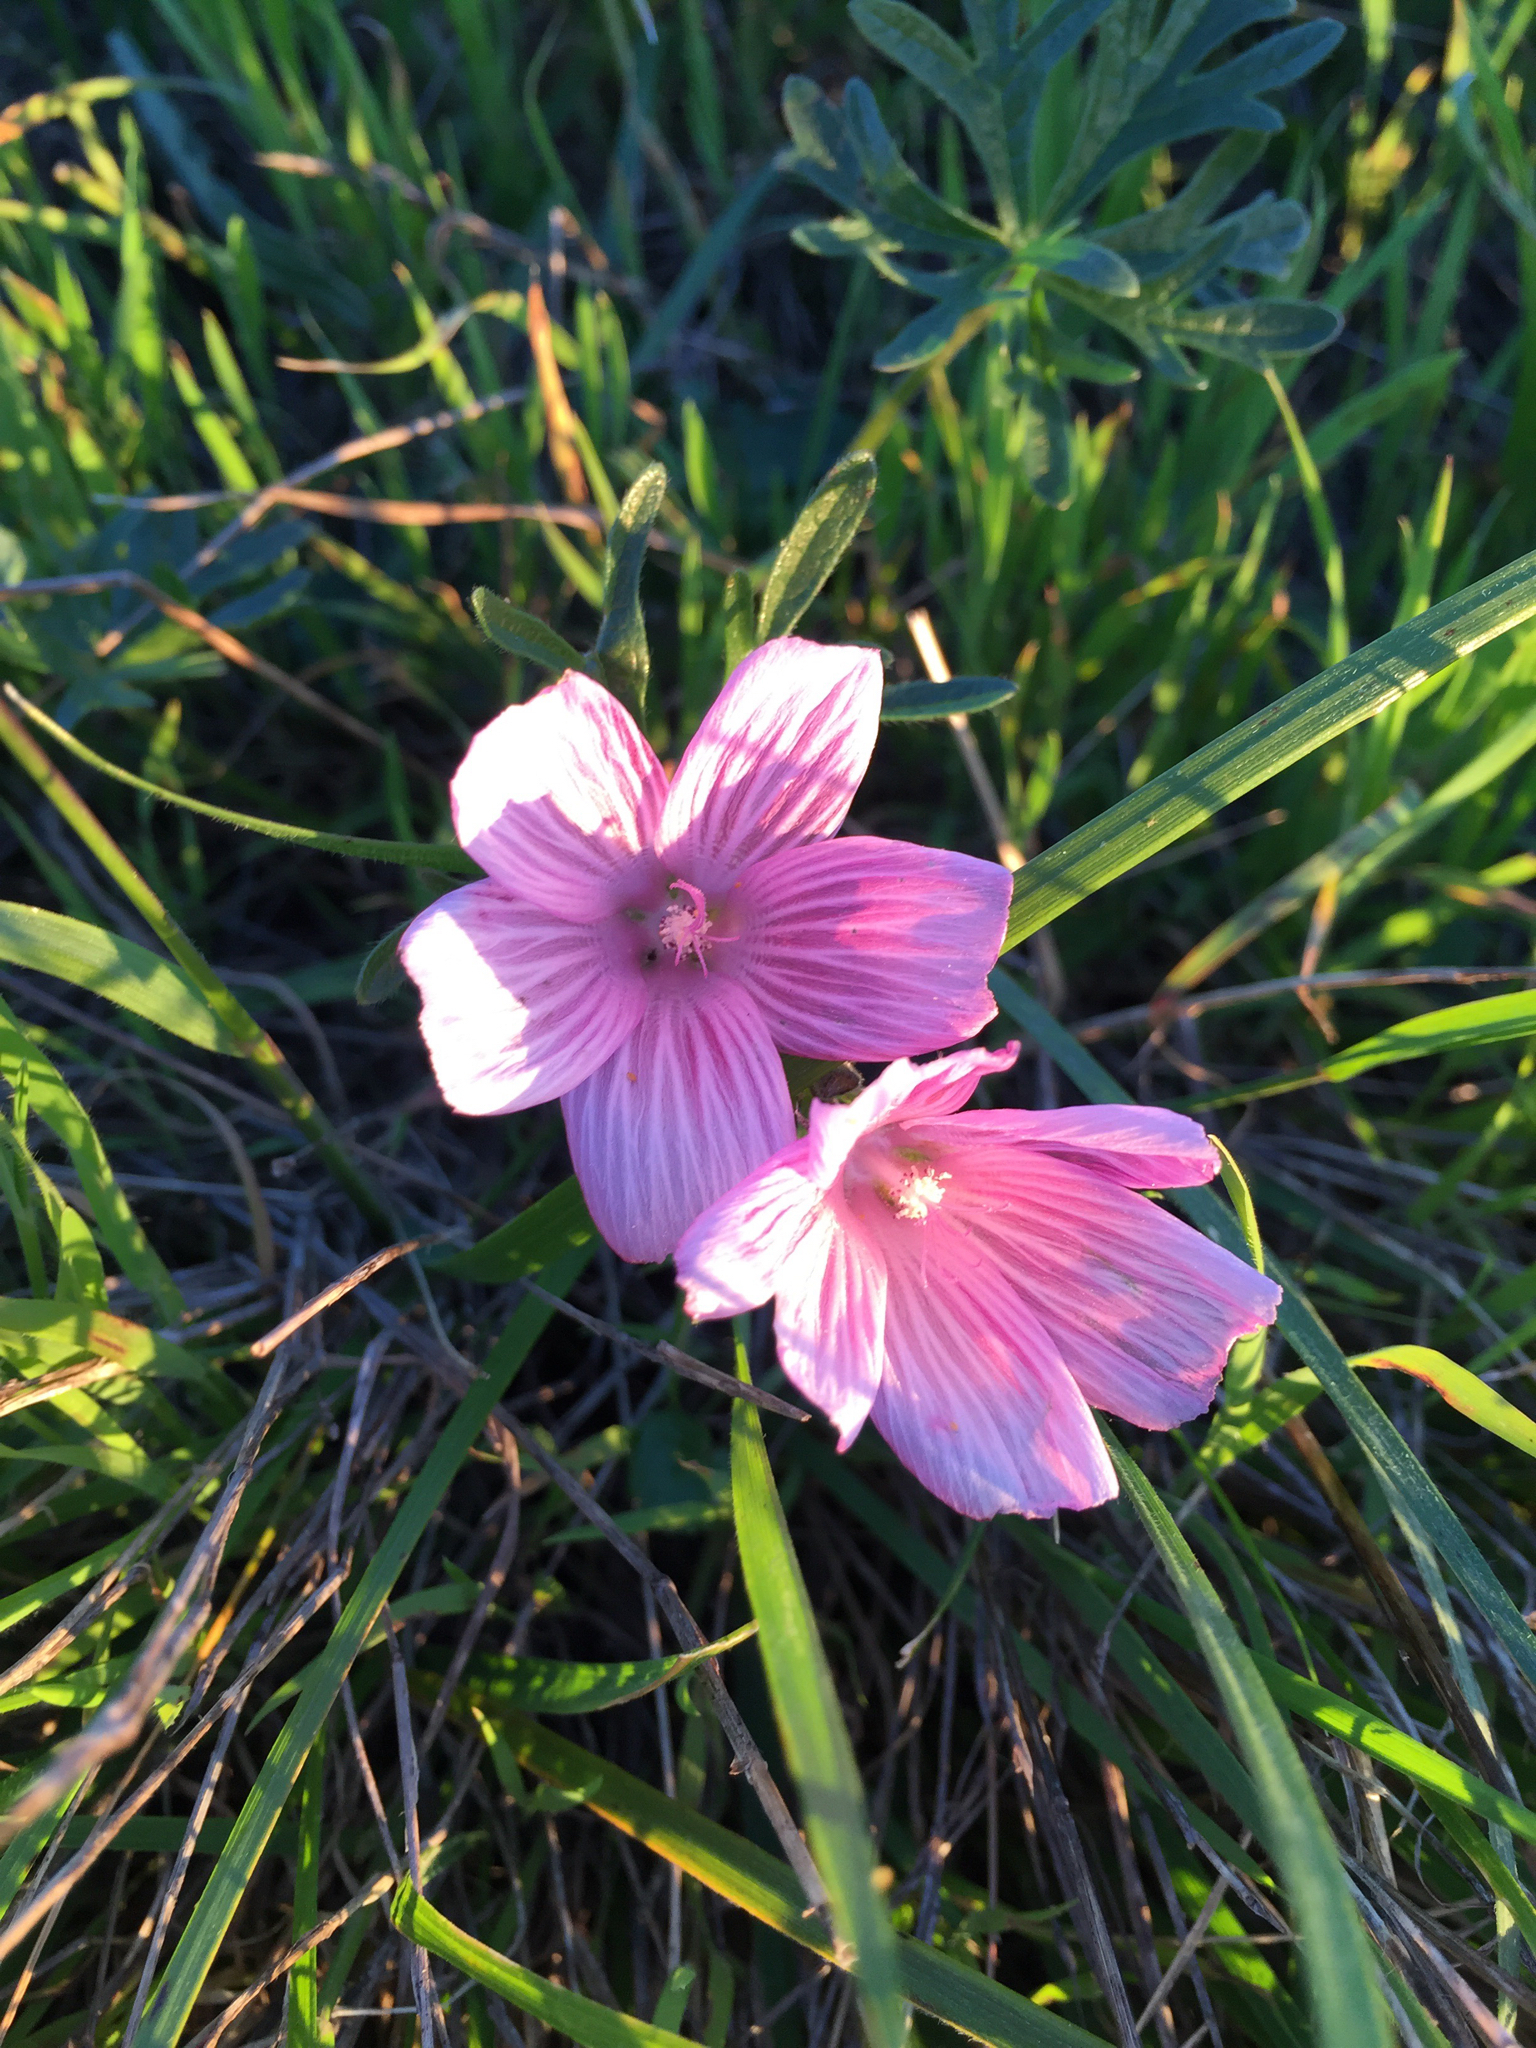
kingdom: Plantae
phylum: Tracheophyta
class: Magnoliopsida
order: Malvales
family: Malvaceae
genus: Sidalcea
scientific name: Sidalcea malviflora
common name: Greek mallow
